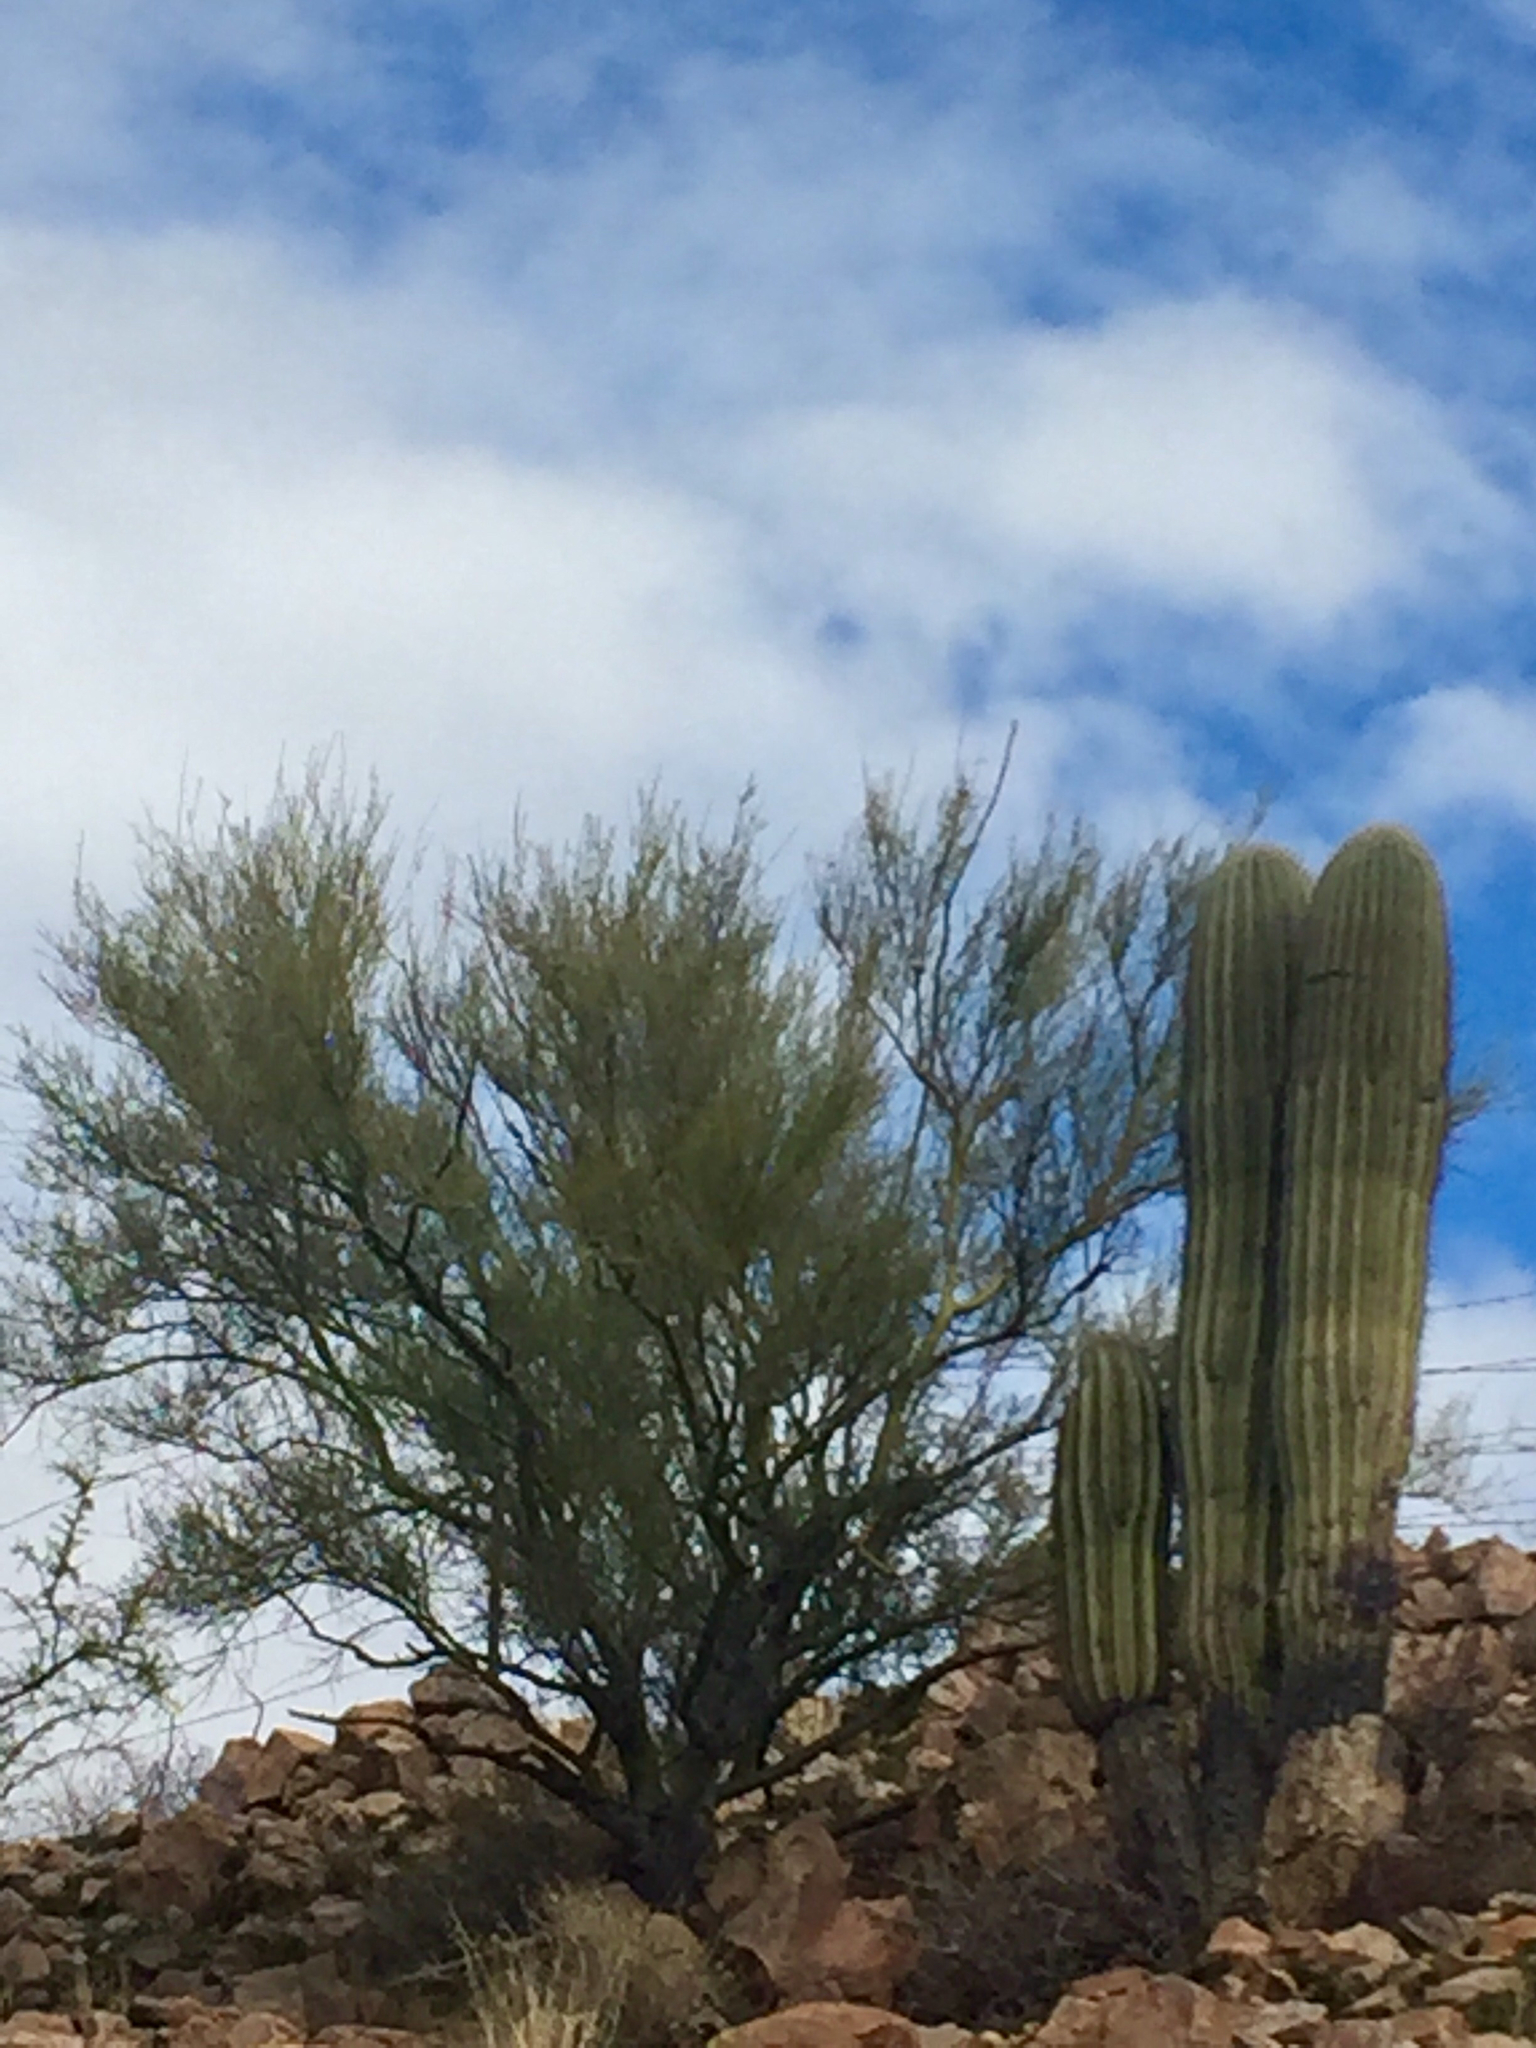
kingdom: Plantae
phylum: Tracheophyta
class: Magnoliopsida
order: Fabales
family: Fabaceae
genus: Parkinsonia
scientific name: Parkinsonia microphylla
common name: Yellow paloverde
